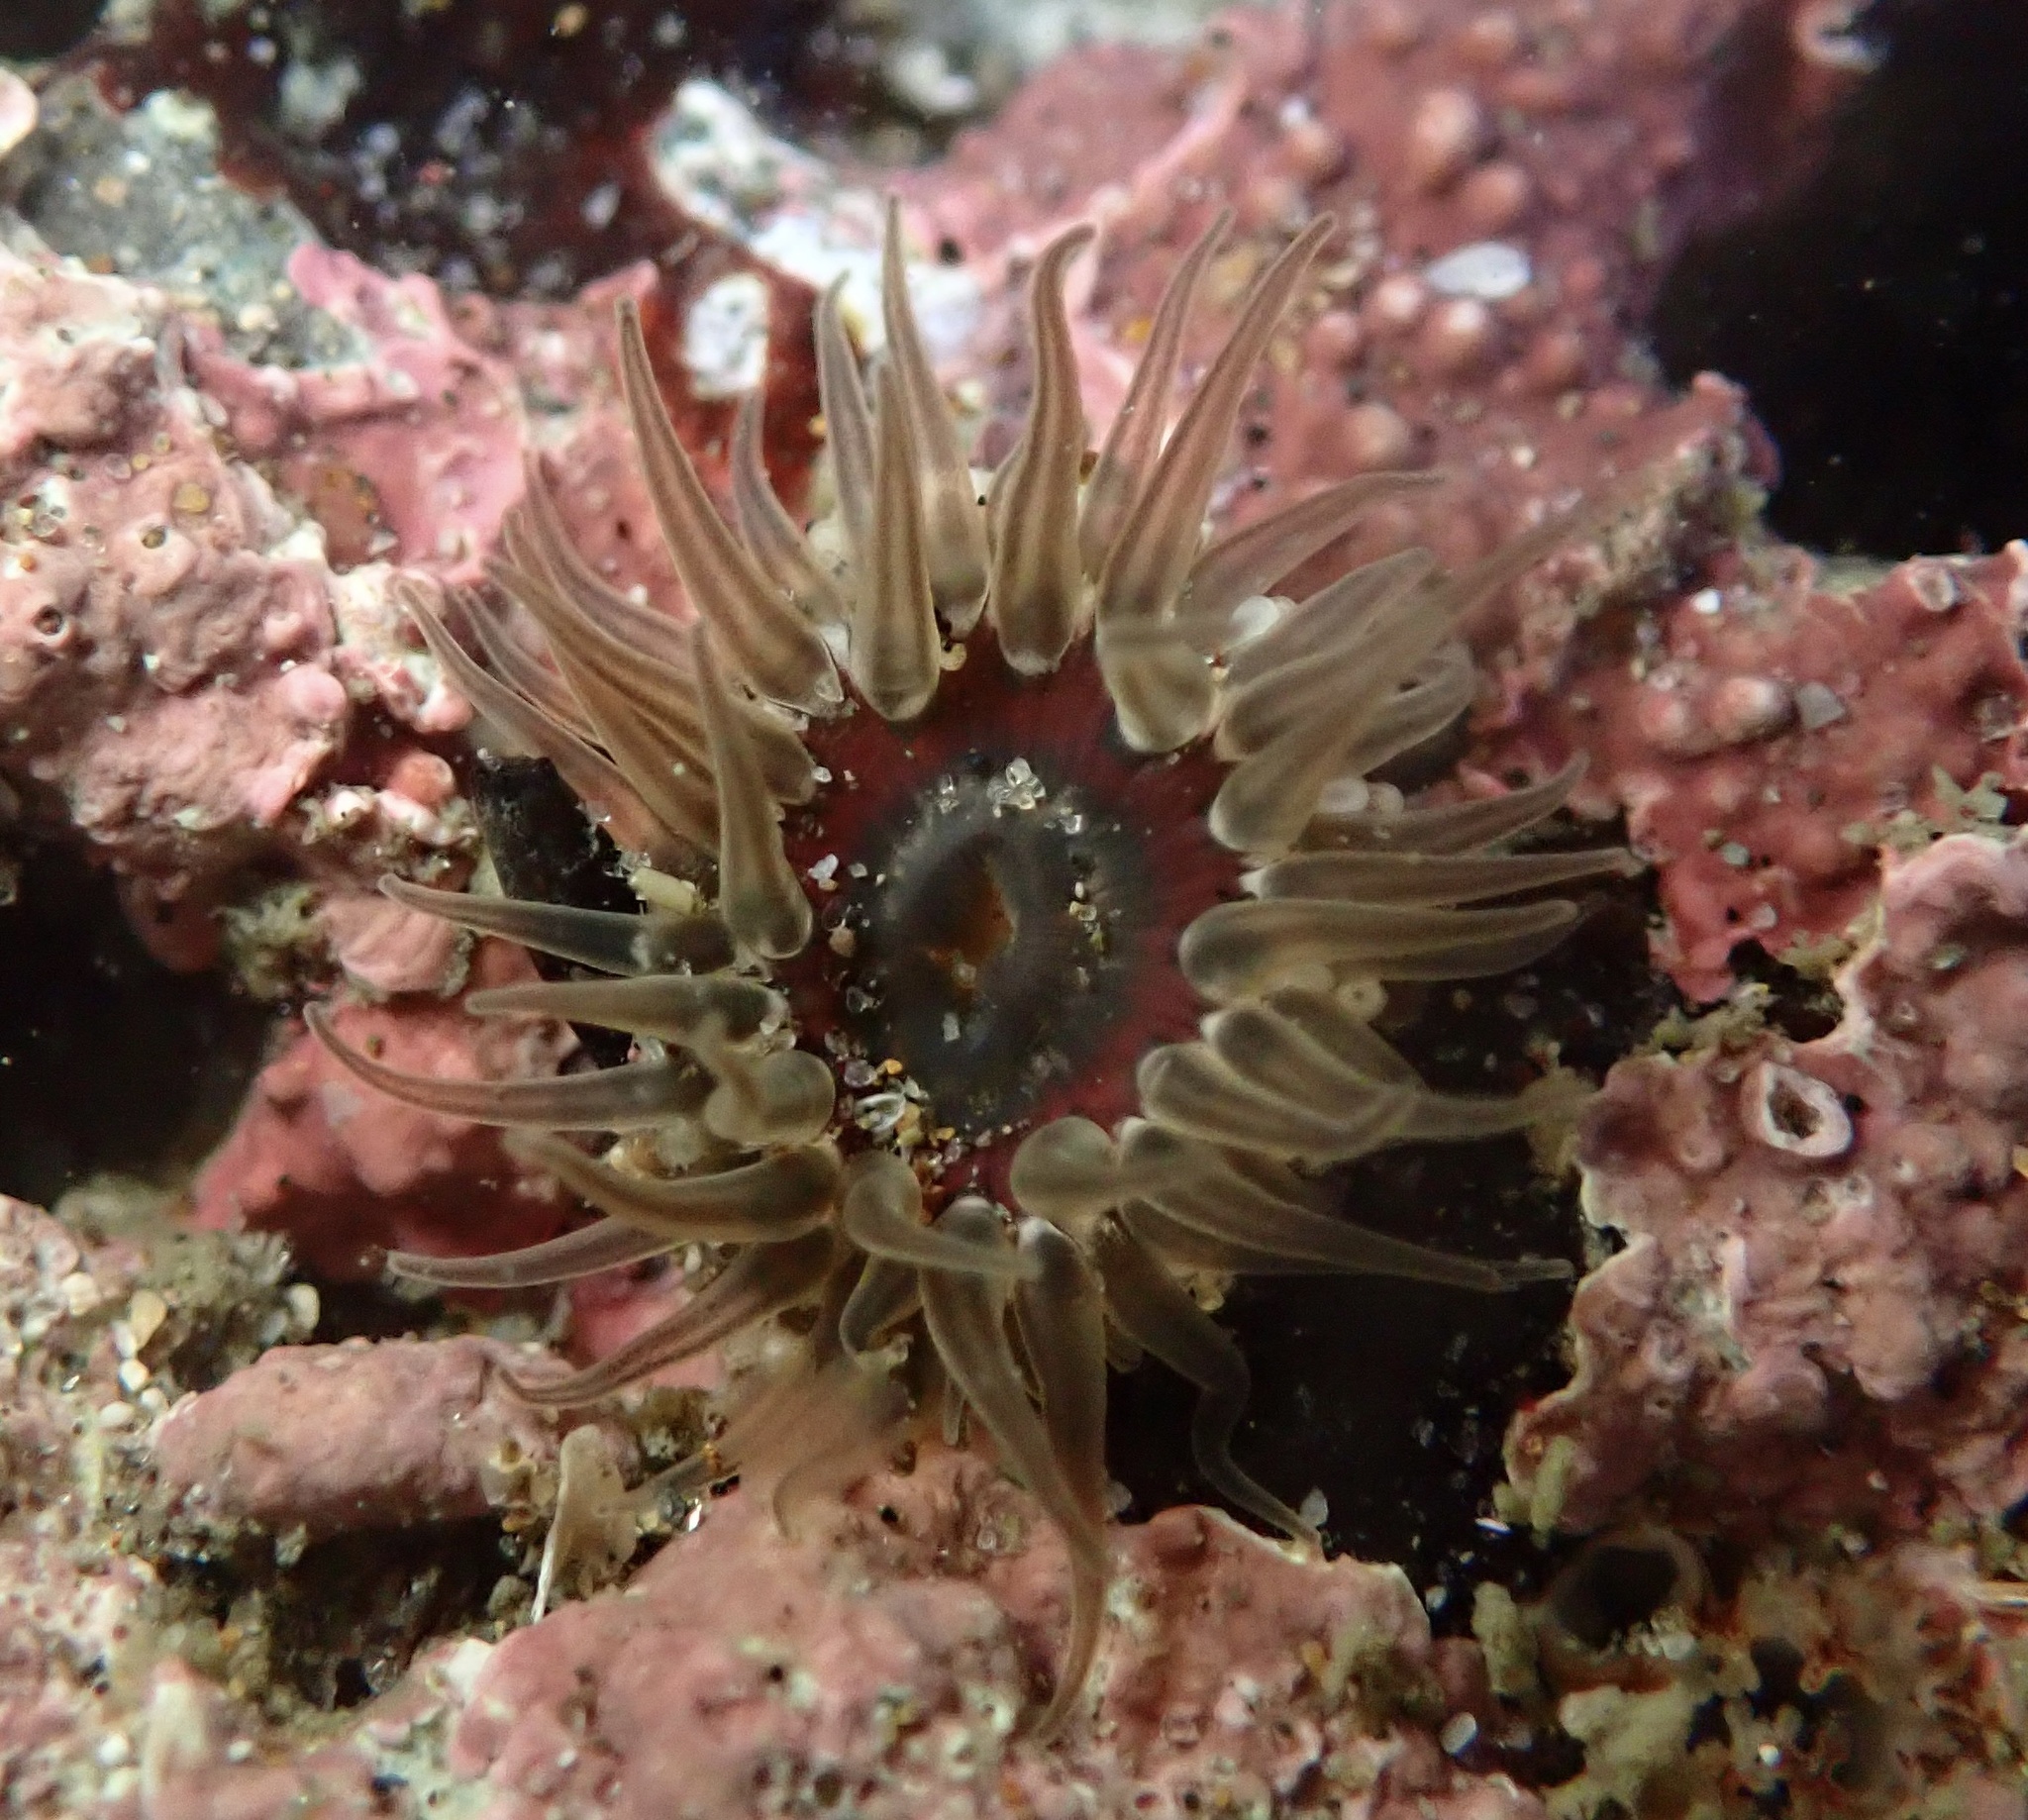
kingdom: Animalia
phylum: Cnidaria
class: Anthozoa
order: Actiniaria
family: Actiniidae
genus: Anthopleura
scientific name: Anthopleura artemisia
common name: Buried sea anemone
